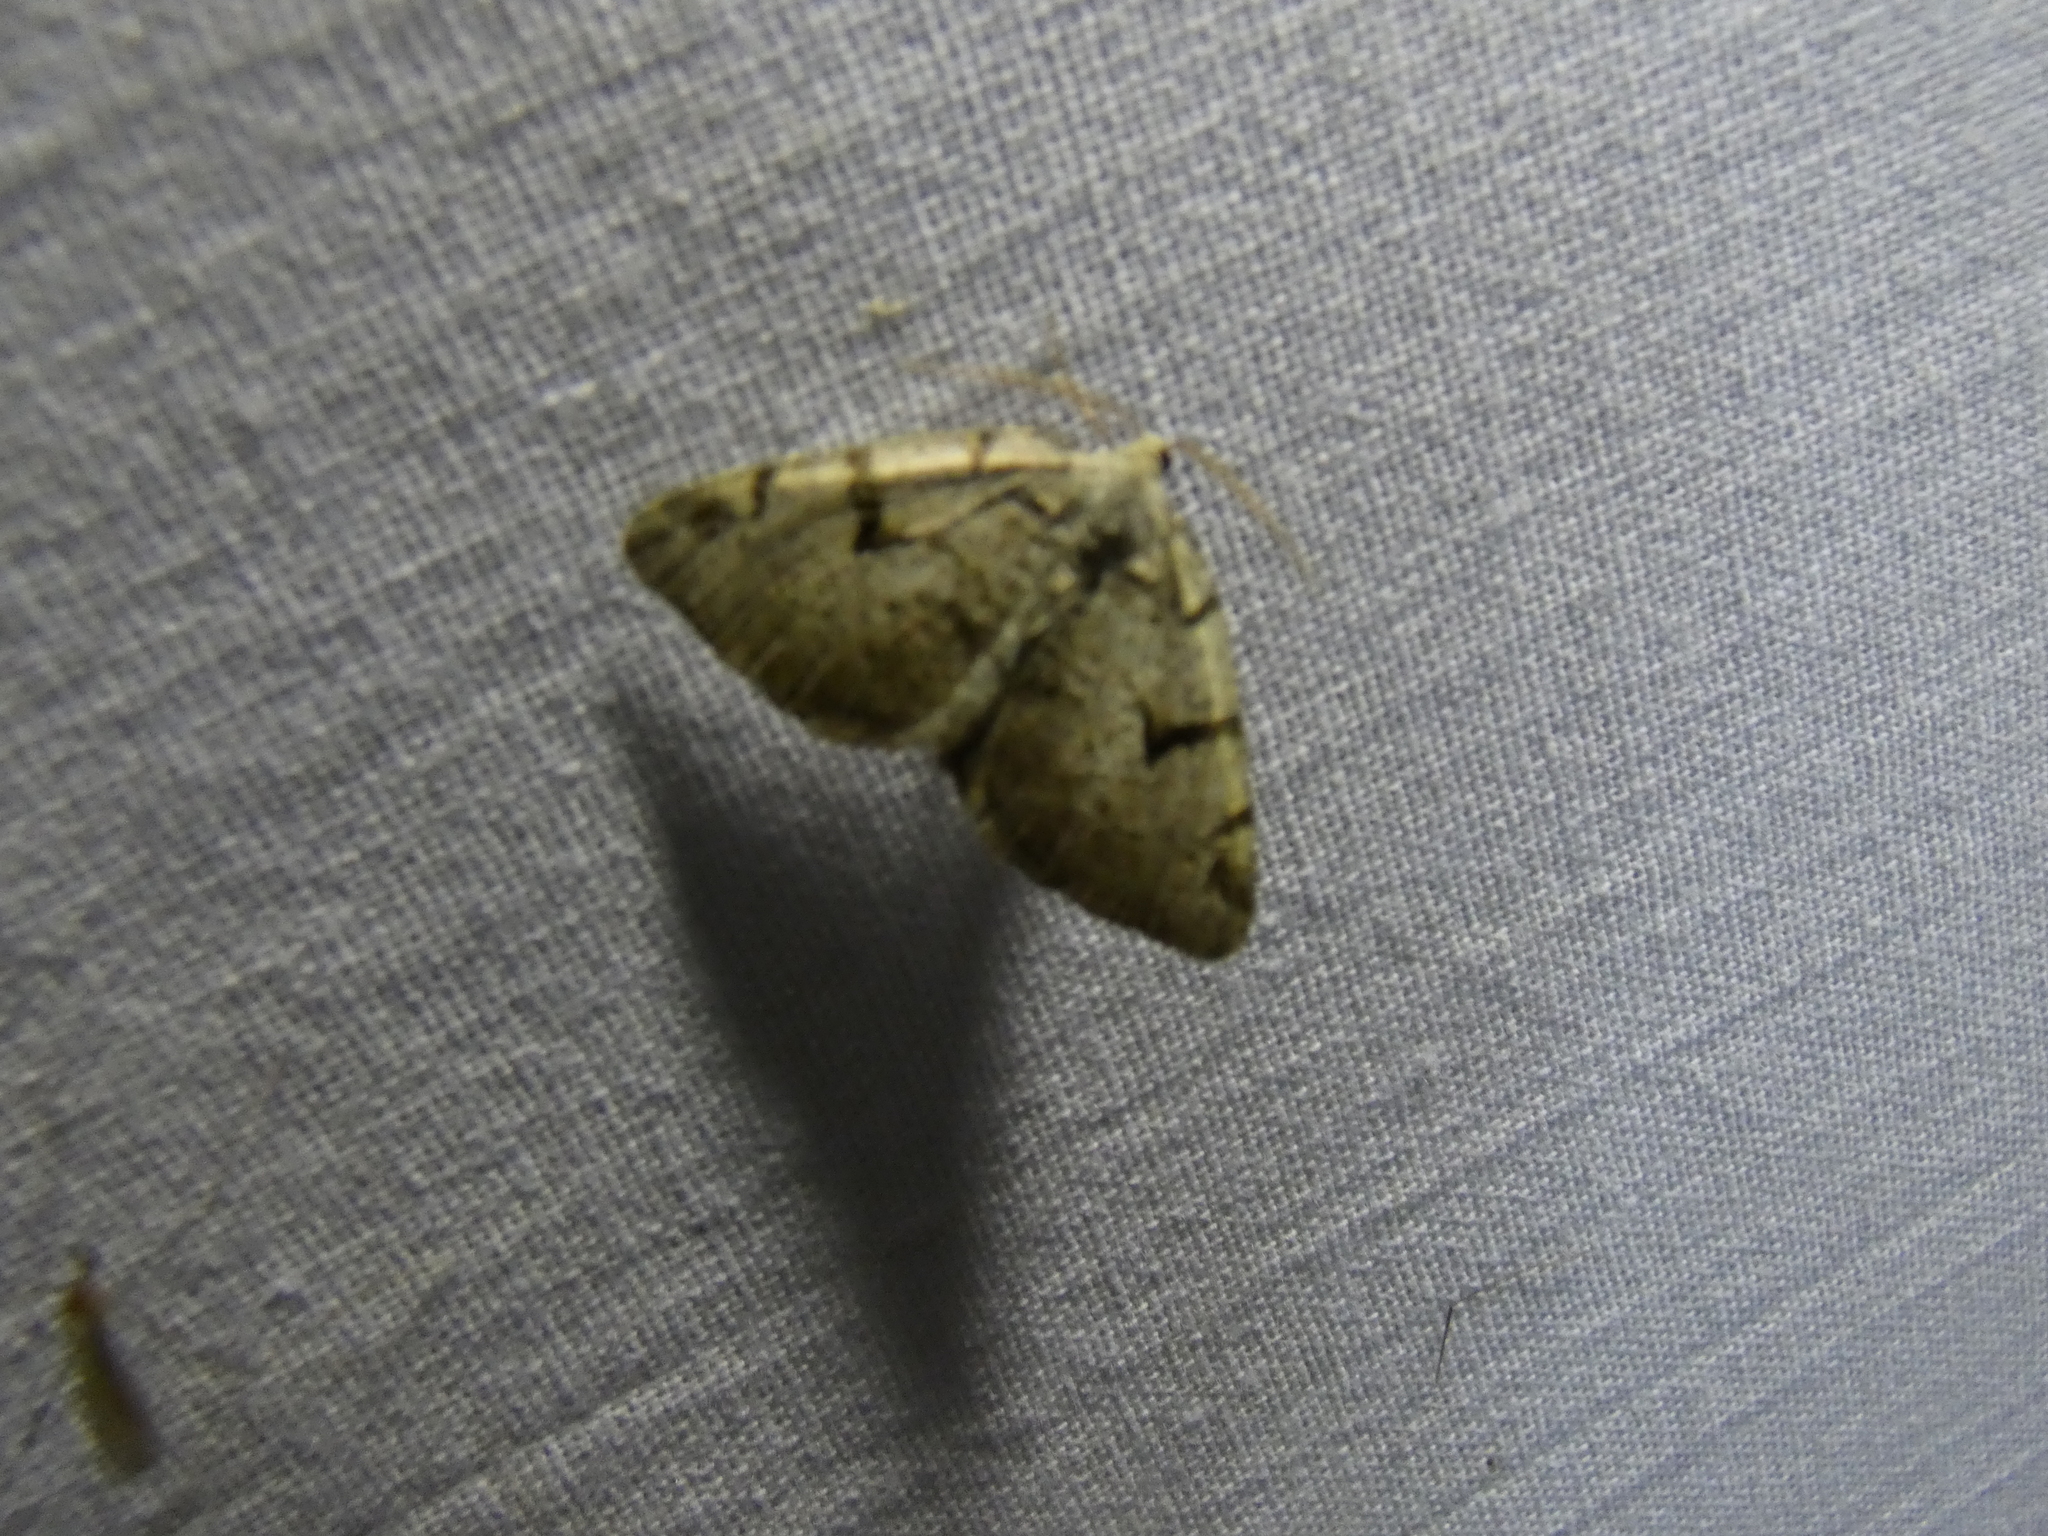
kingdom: Animalia
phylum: Arthropoda
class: Insecta
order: Lepidoptera
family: Geometridae
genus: Macaria
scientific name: Macaria wauaria
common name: V-moth
